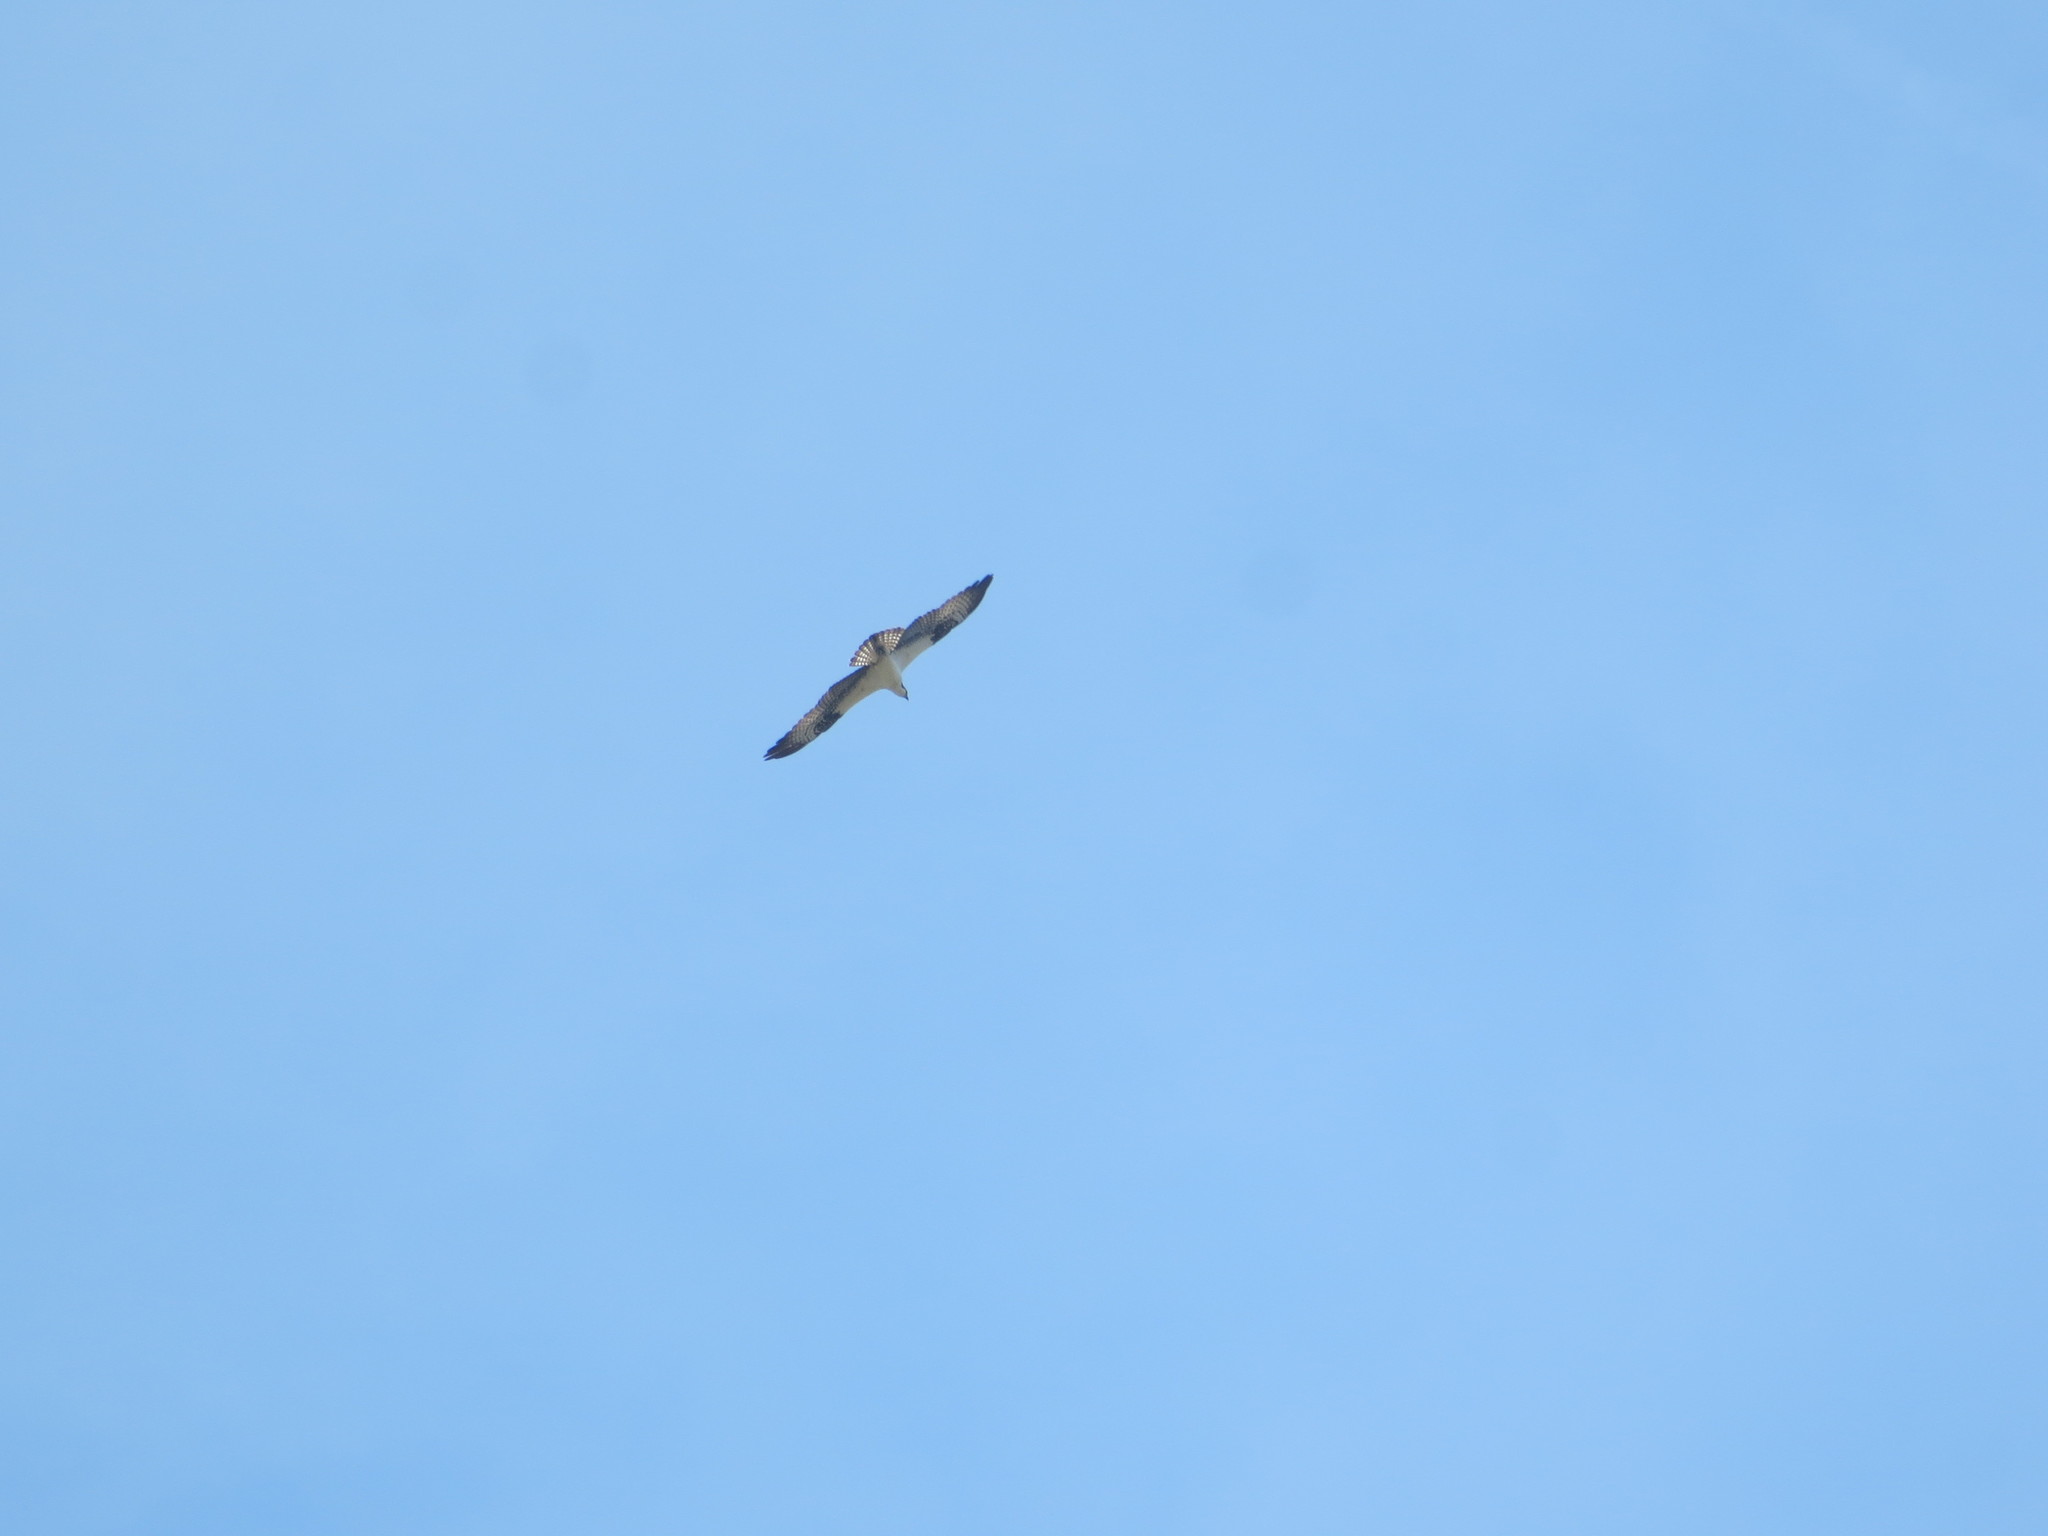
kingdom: Animalia
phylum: Chordata
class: Aves
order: Accipitriformes
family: Pandionidae
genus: Pandion
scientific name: Pandion haliaetus
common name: Osprey
